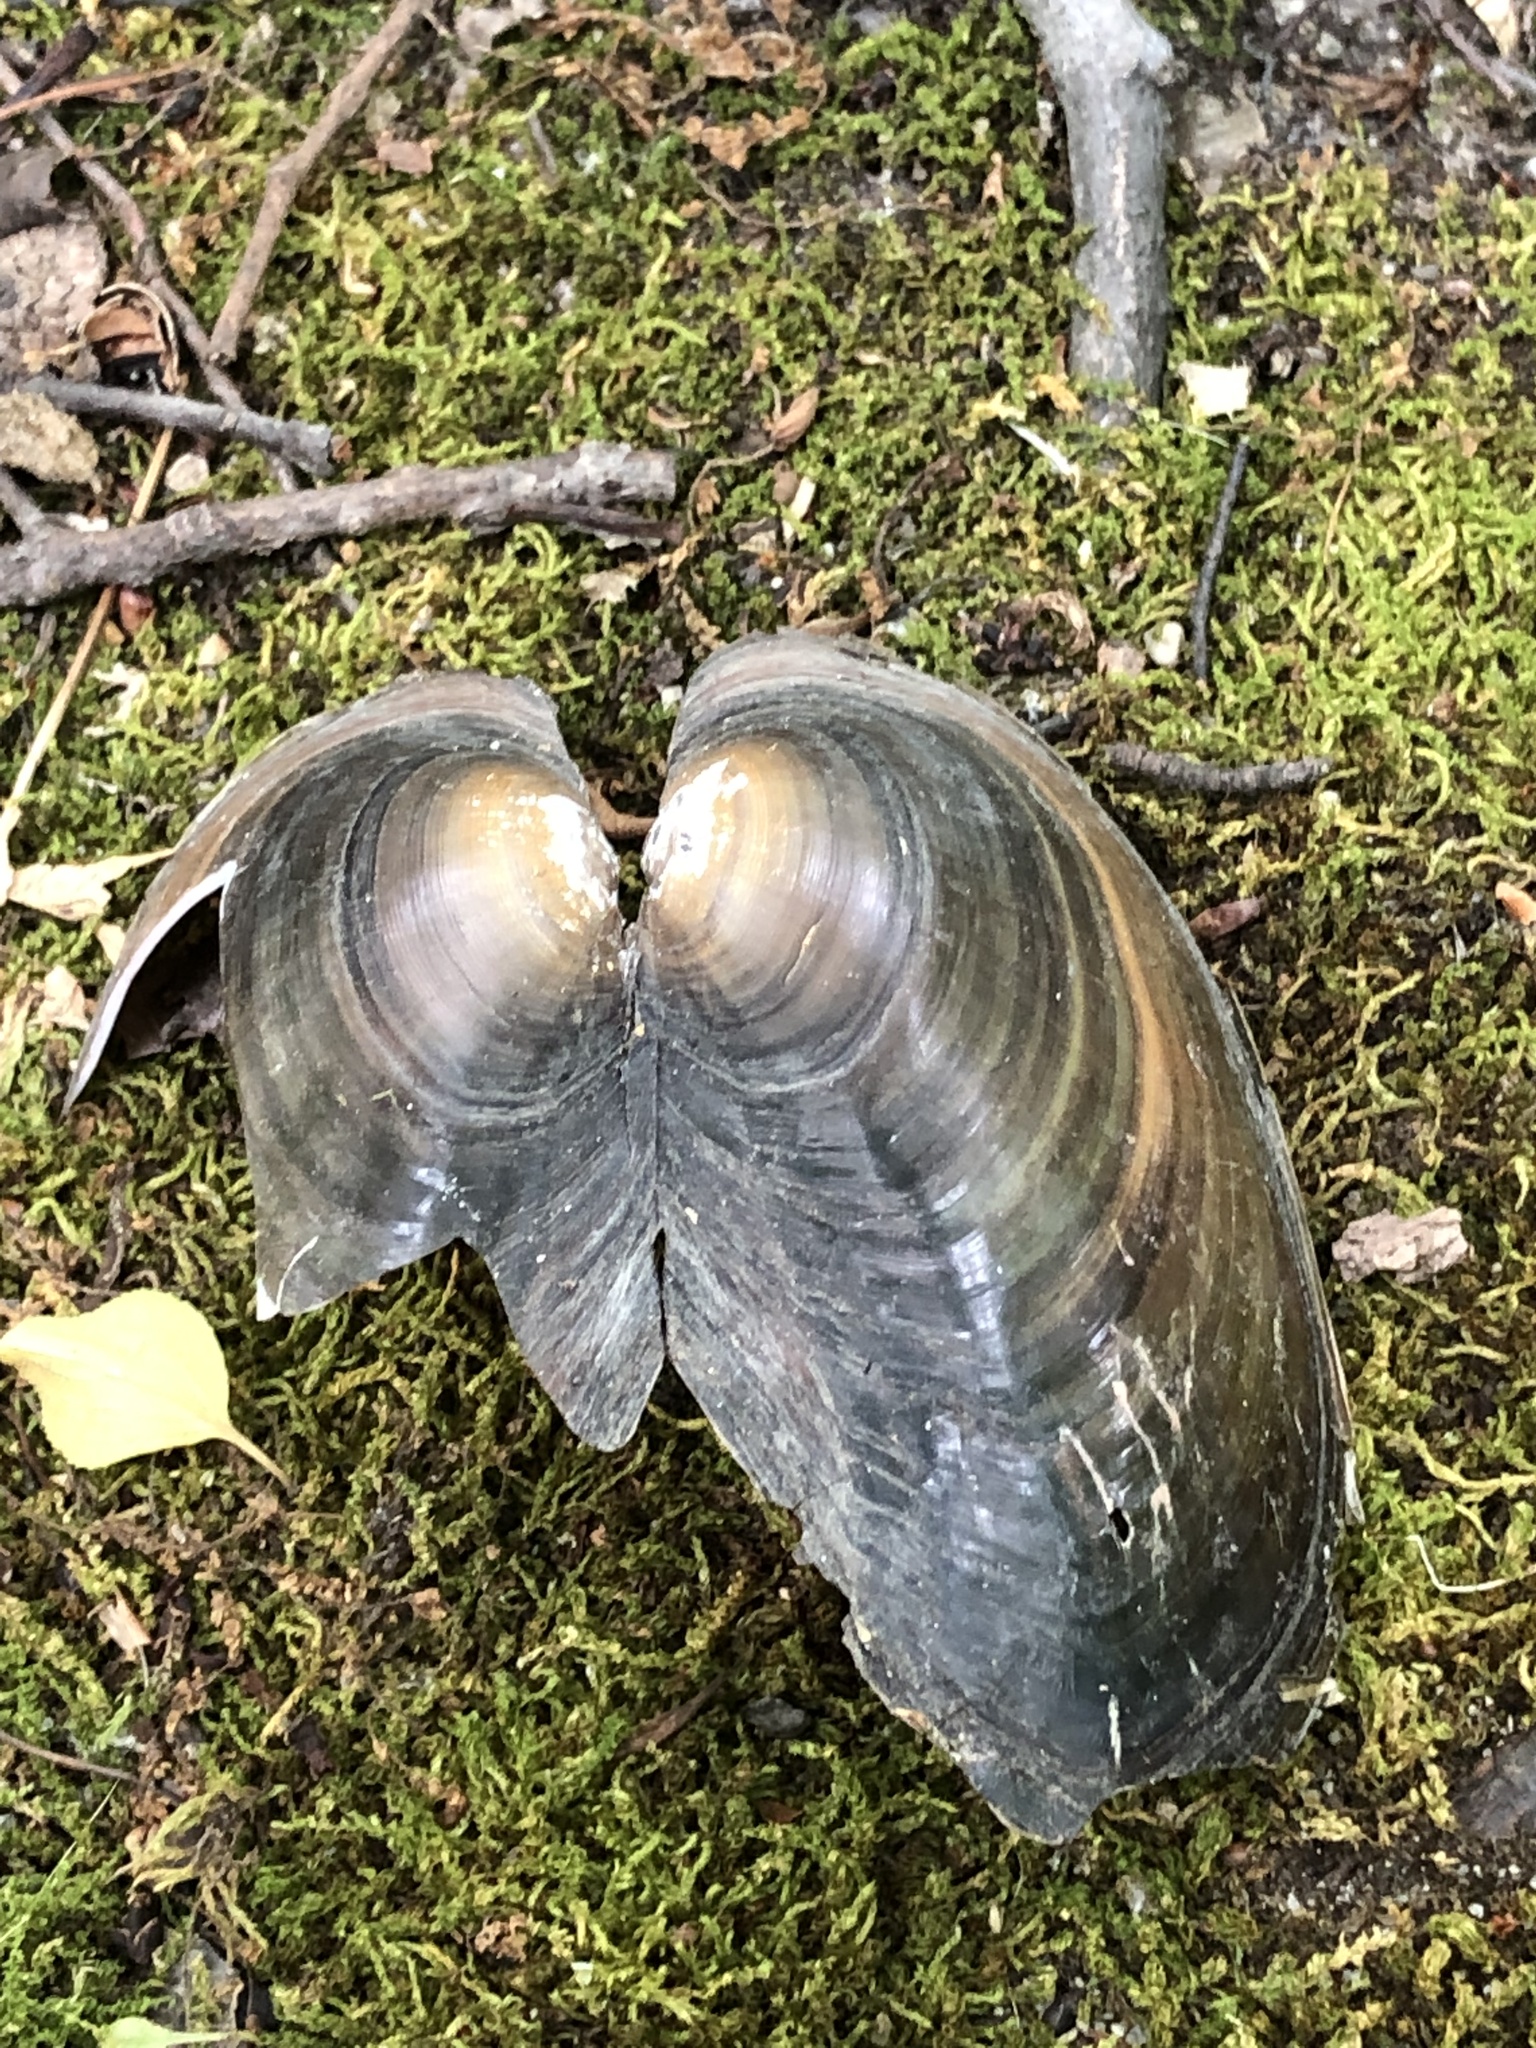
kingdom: Animalia
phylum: Mollusca
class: Bivalvia
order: Unionida
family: Unionidae
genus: Pyganodon
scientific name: Pyganodon cataracta
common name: Eastern floater
